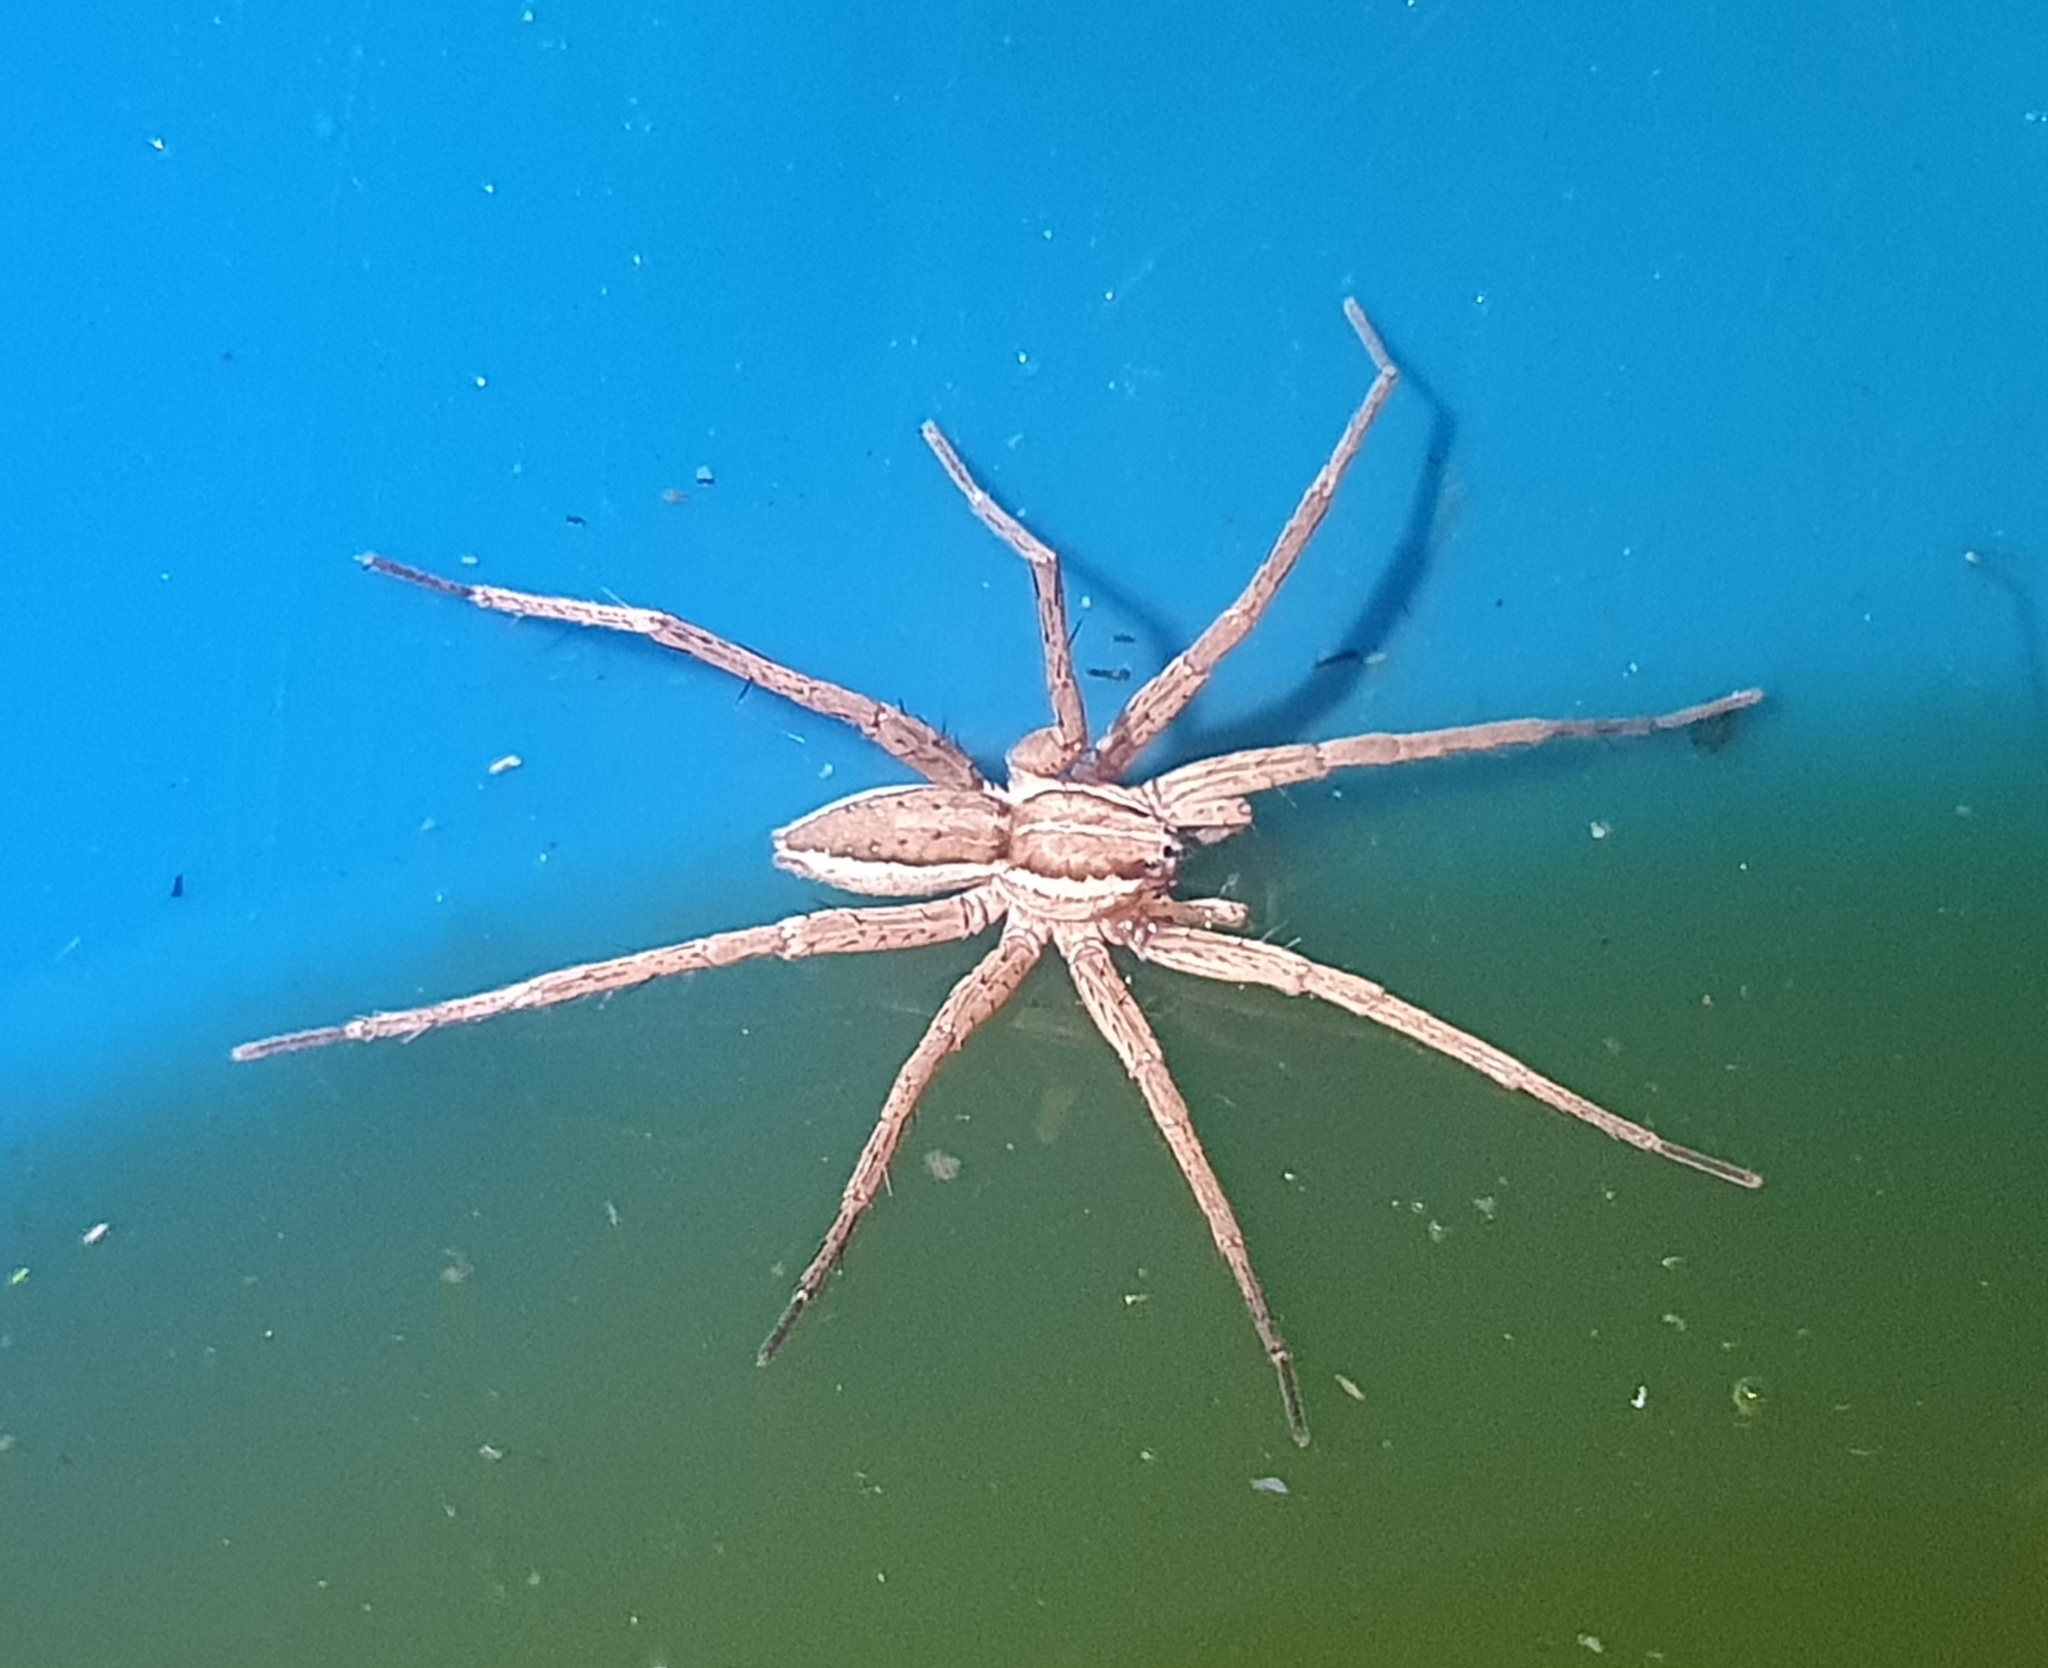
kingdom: Animalia
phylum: Arthropoda
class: Arachnida
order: Araneae
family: Pisauridae
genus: Dolomedes
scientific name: Dolomedes minor
